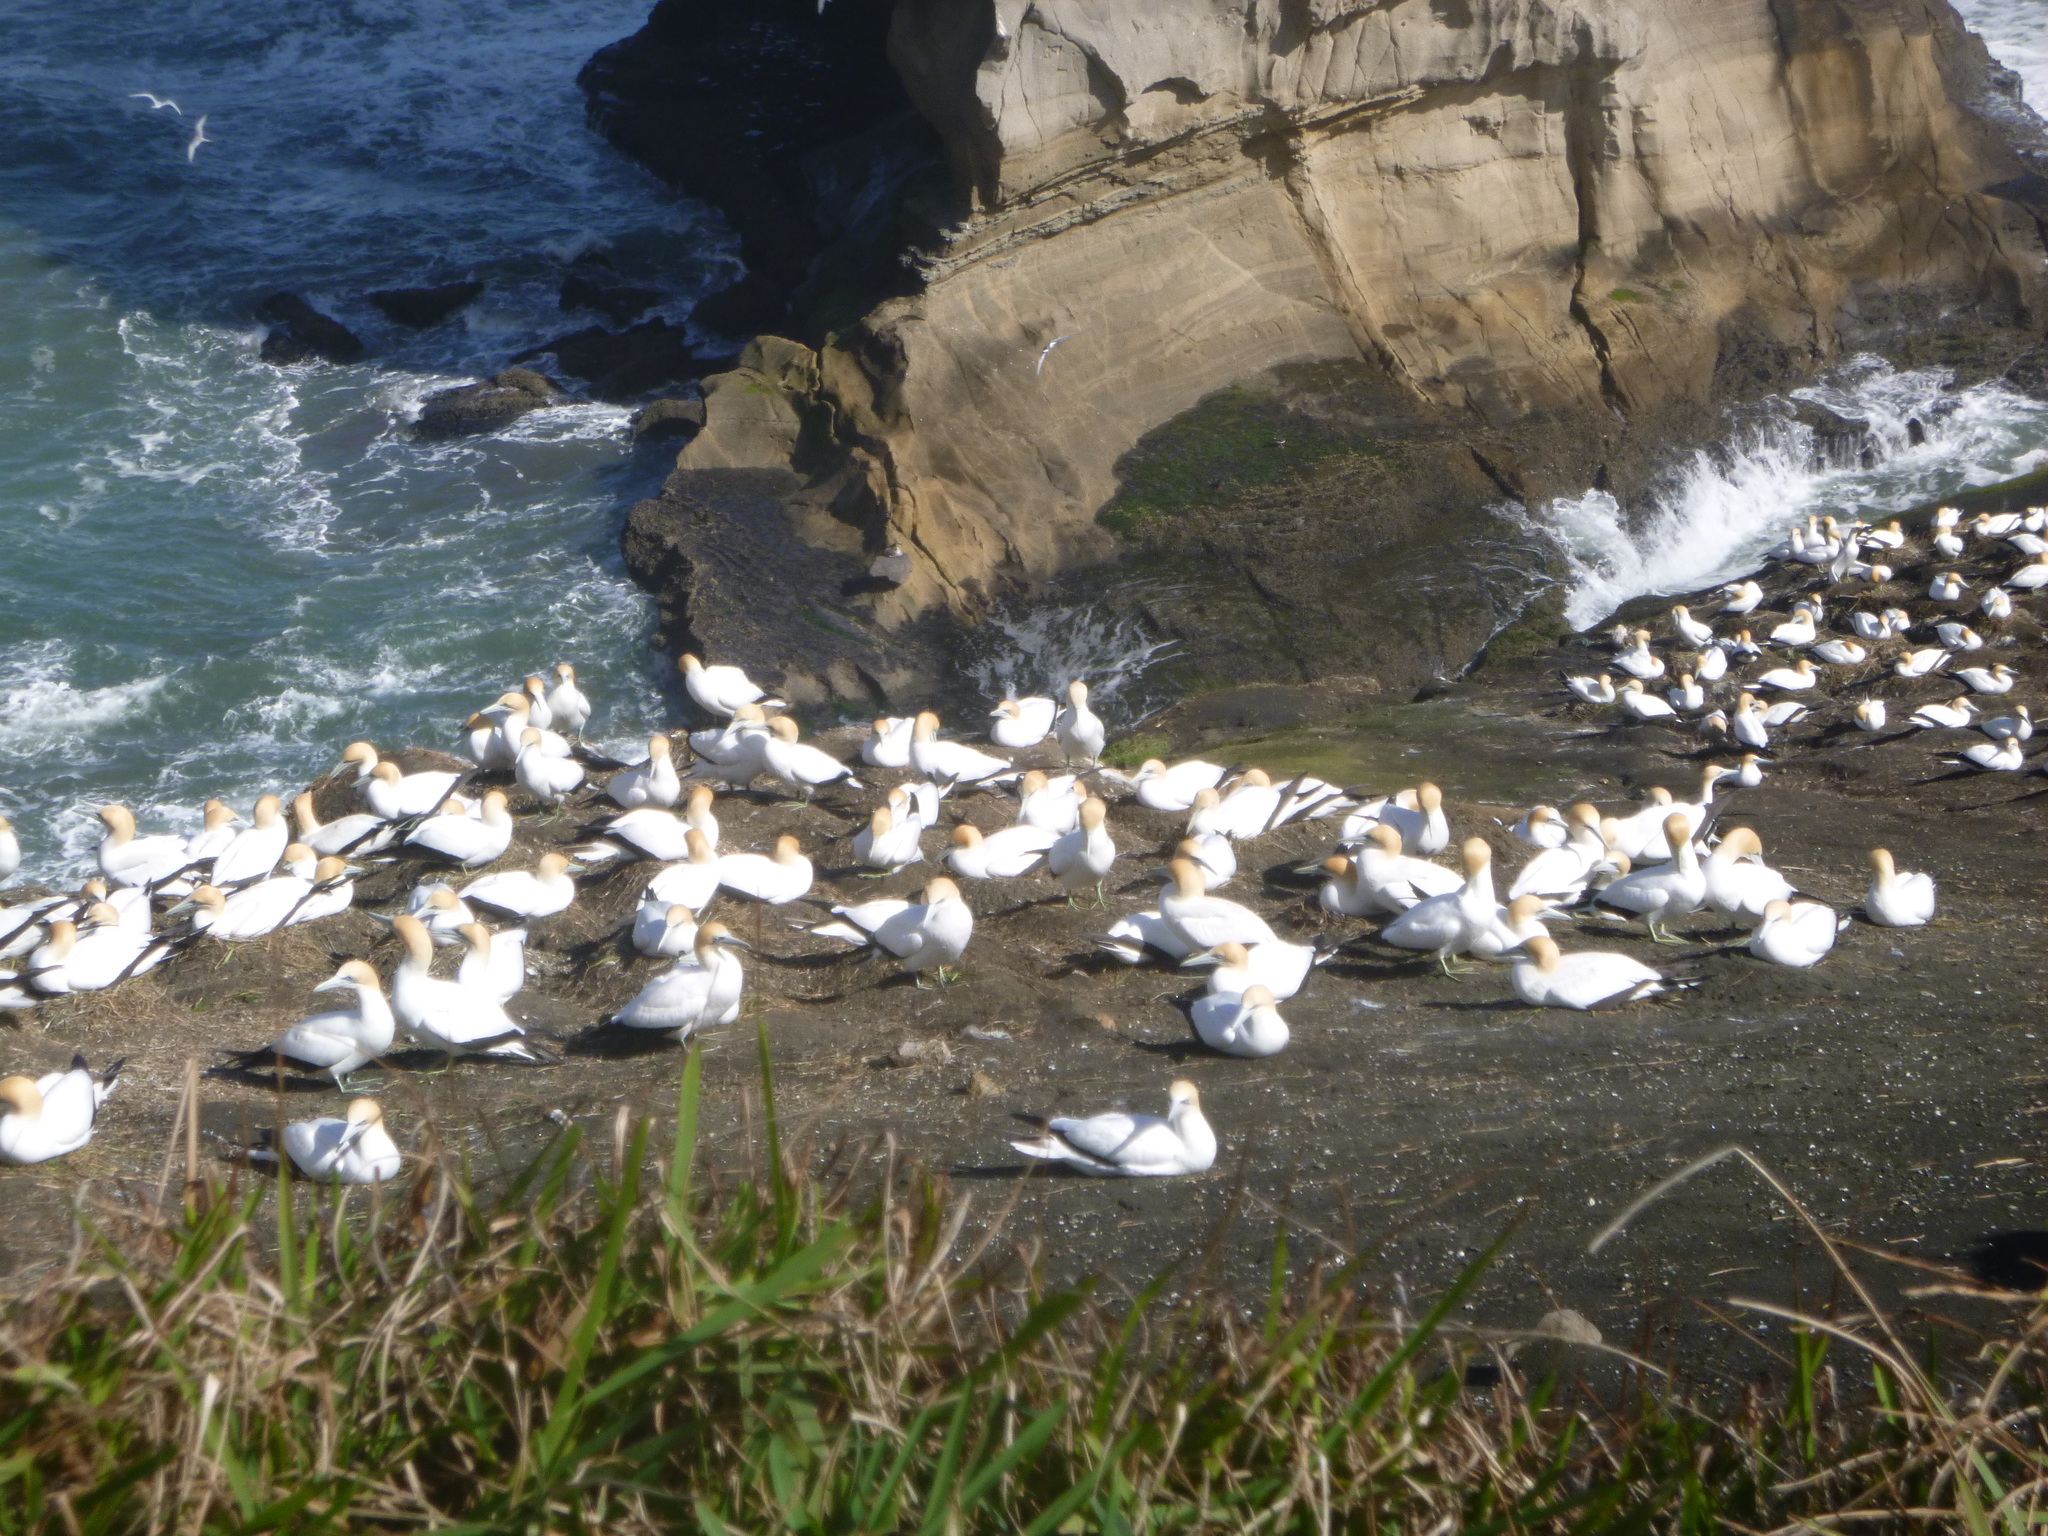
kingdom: Animalia
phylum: Chordata
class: Aves
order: Suliformes
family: Sulidae
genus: Morus
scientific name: Morus serrator
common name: Australasian gannet
